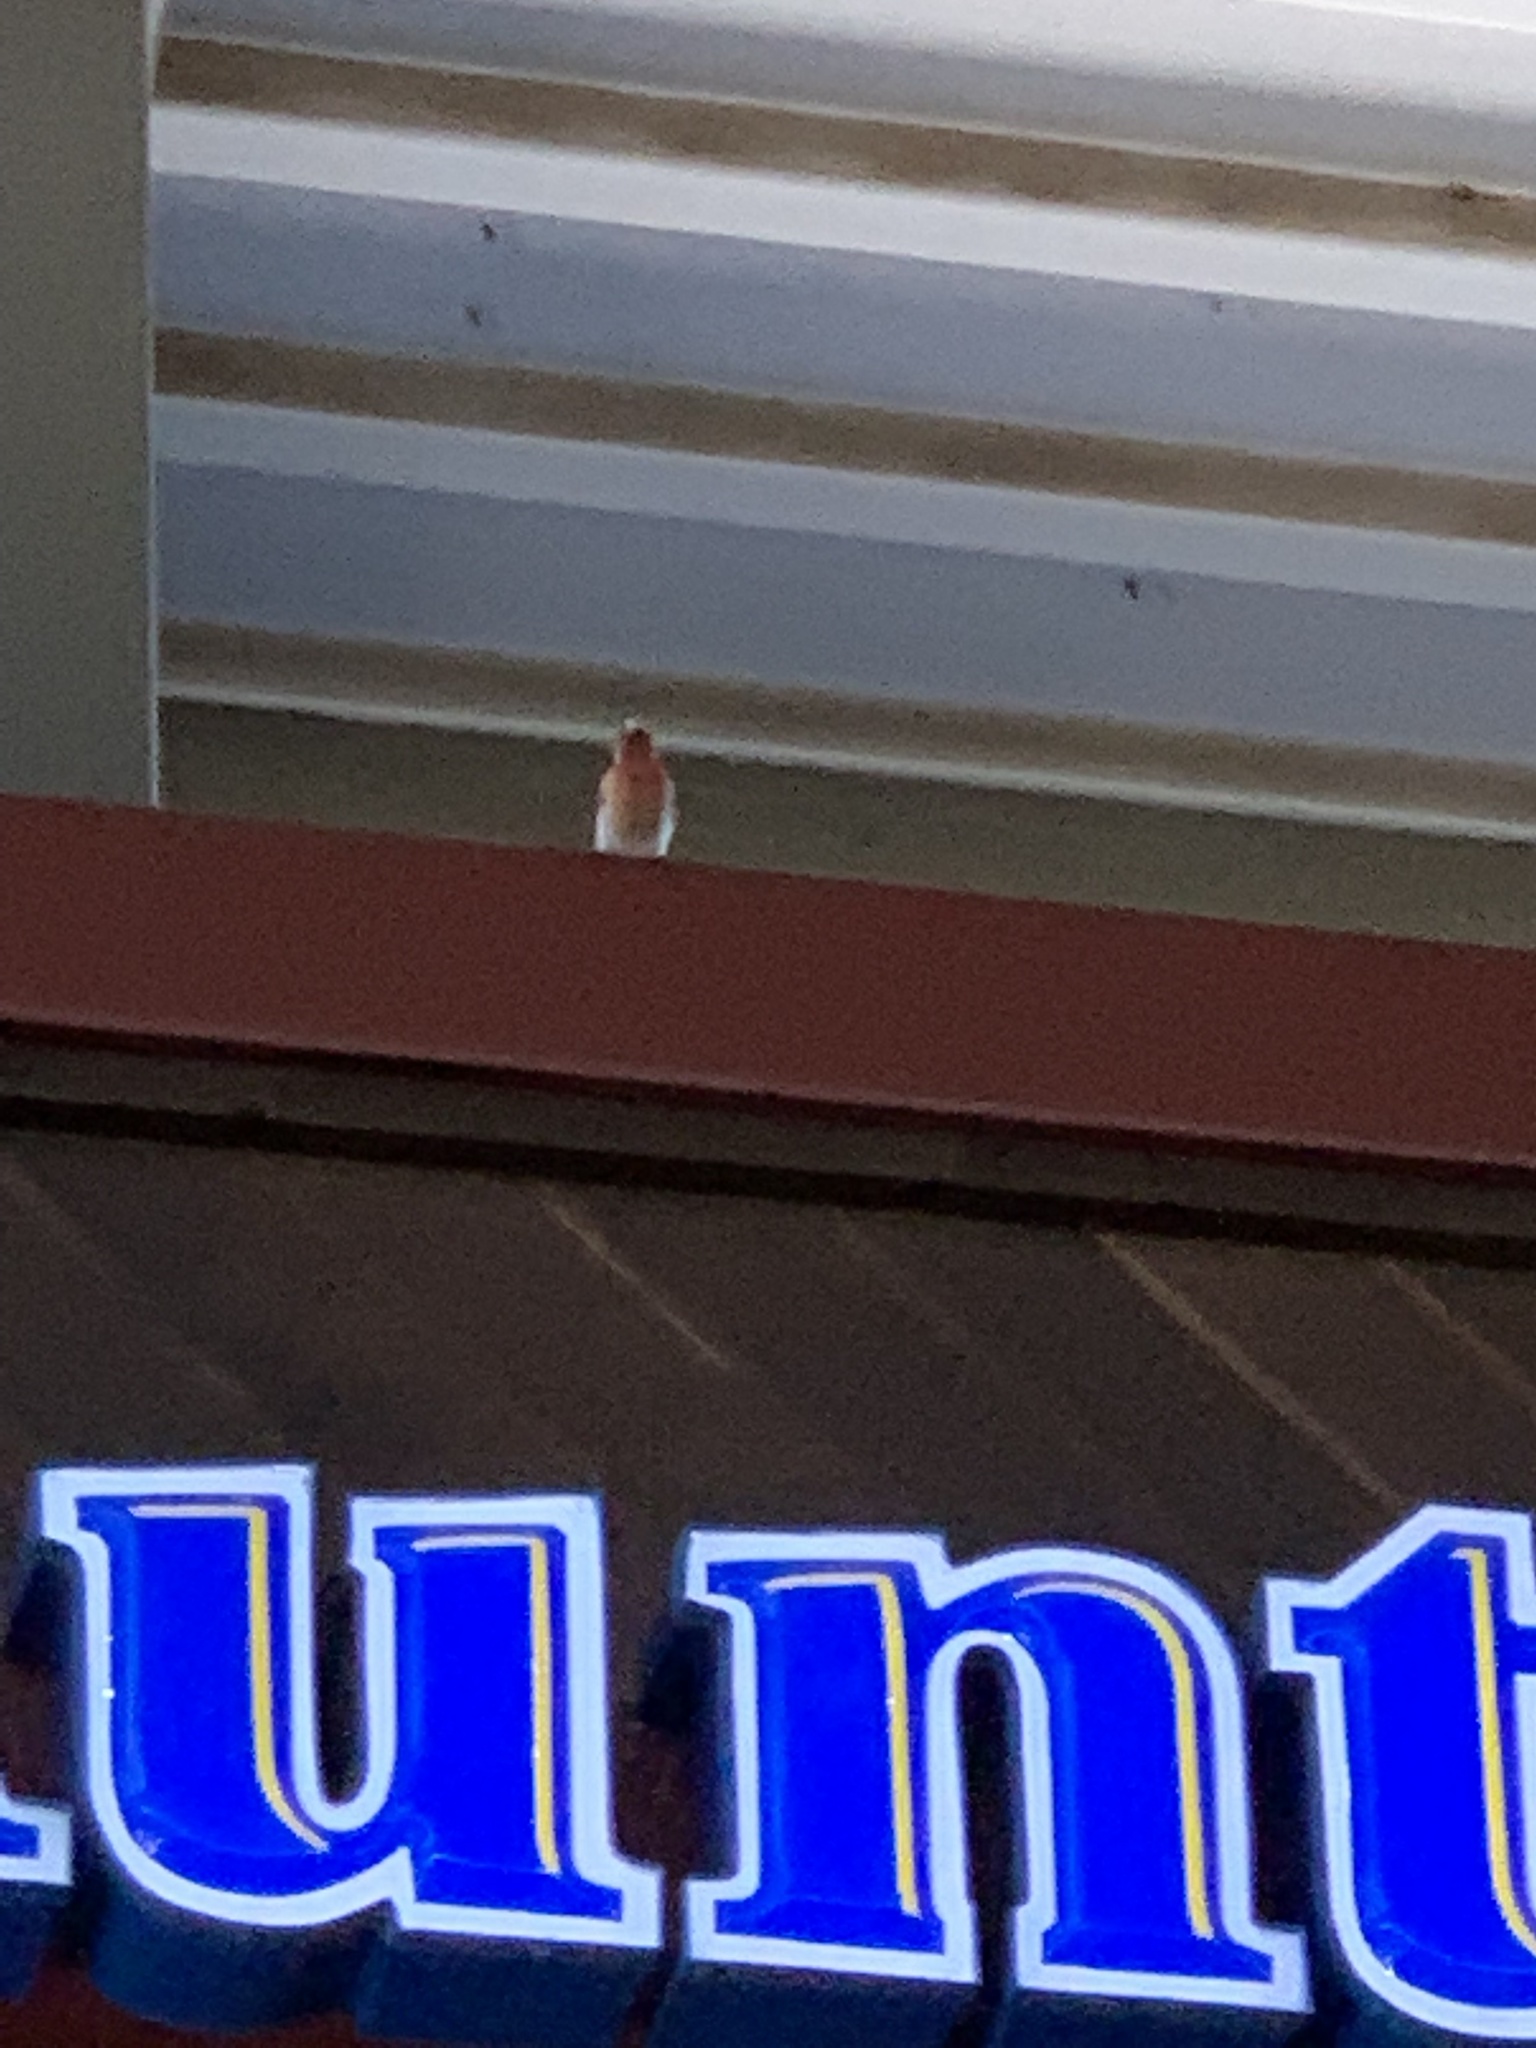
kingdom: Animalia
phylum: Chordata
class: Aves
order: Passeriformes
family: Fringillidae
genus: Haemorhous
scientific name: Haemorhous mexicanus
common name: House finch
